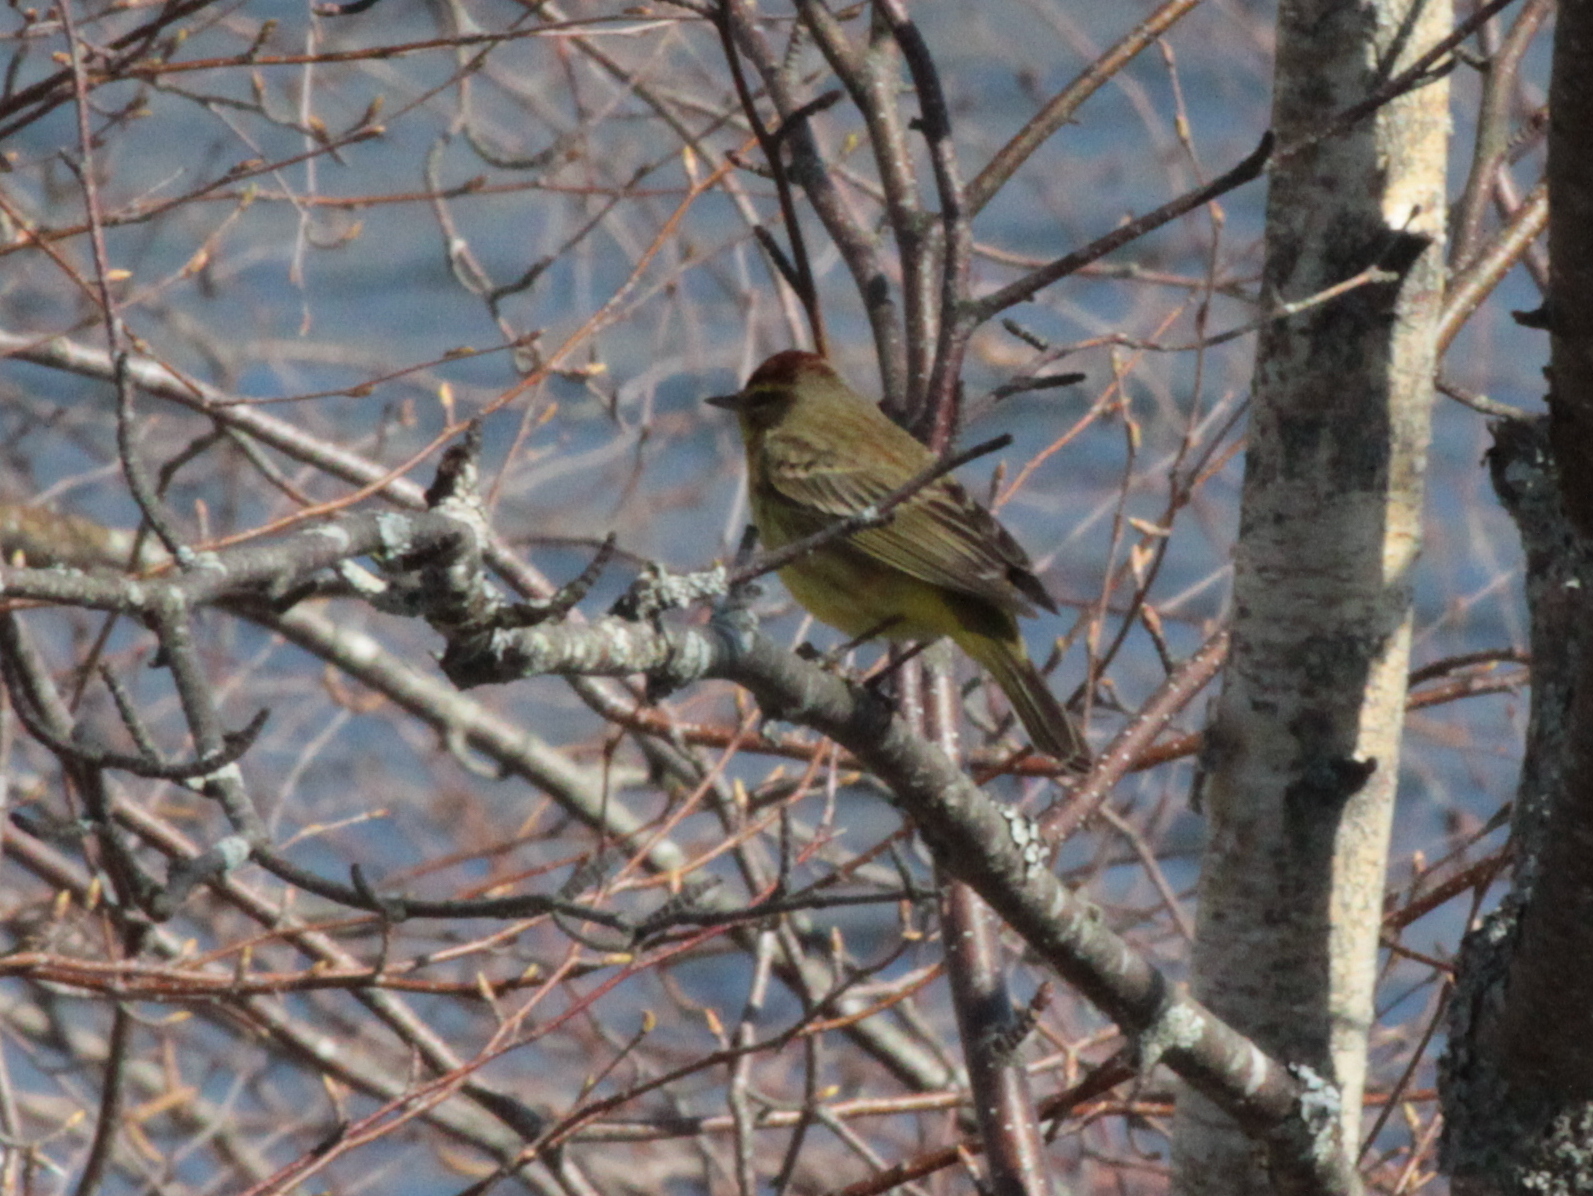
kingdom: Animalia
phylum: Chordata
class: Aves
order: Passeriformes
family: Parulidae
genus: Setophaga
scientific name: Setophaga palmarum
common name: Palm warbler
